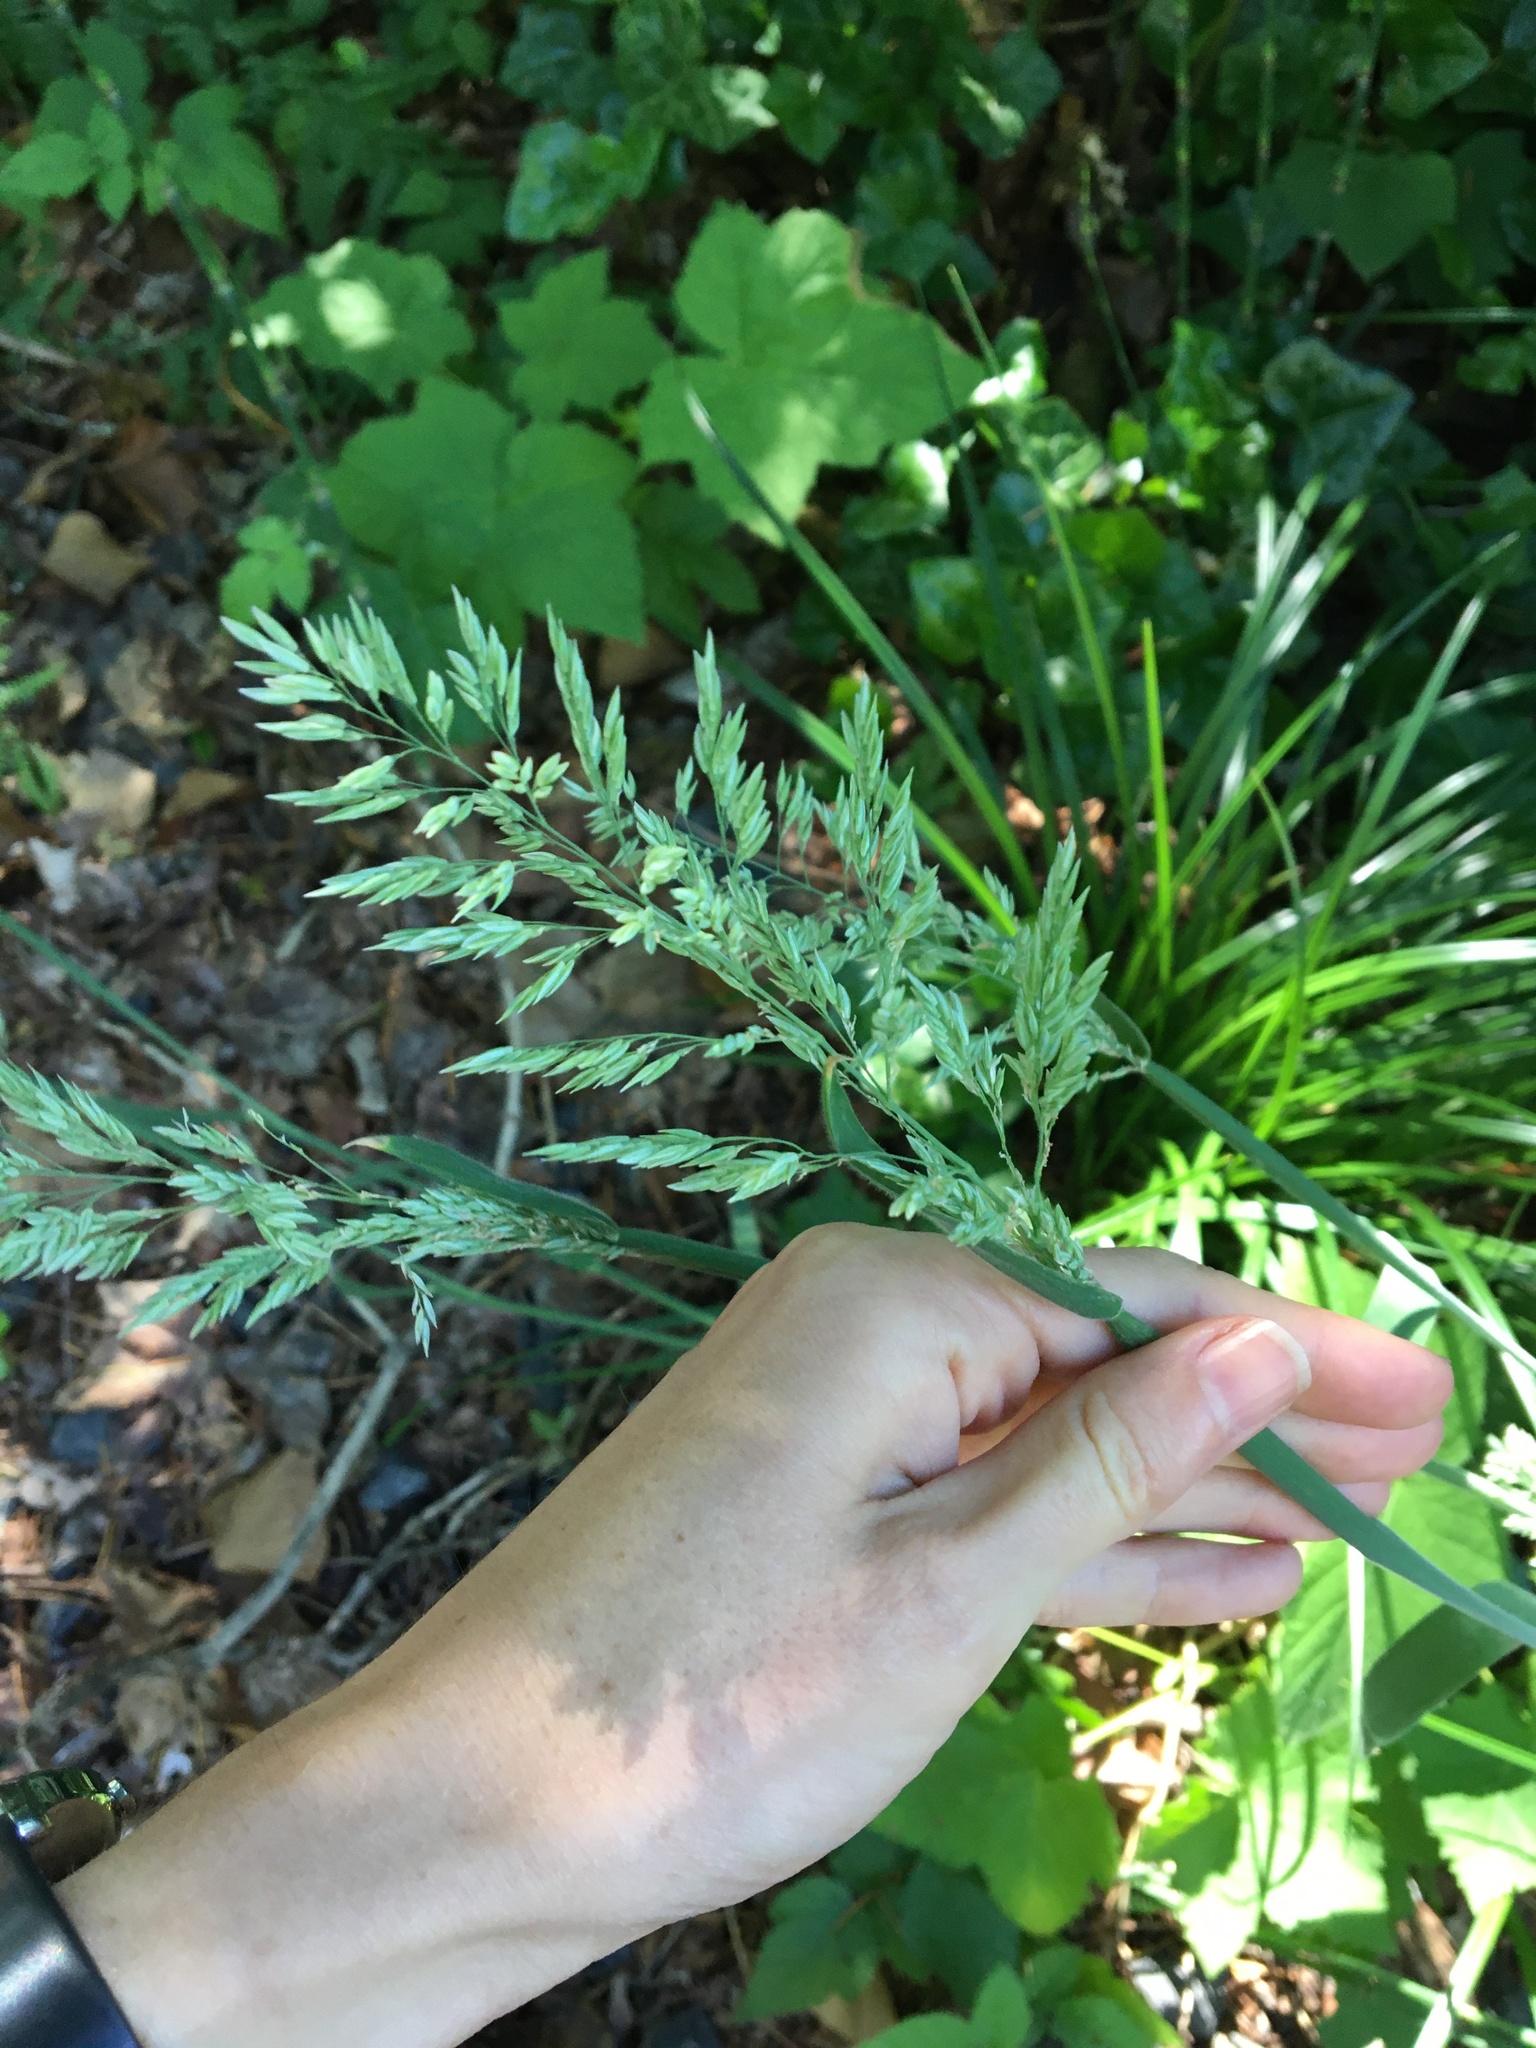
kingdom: Plantae
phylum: Tracheophyta
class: Liliopsida
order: Poales
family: Poaceae
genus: Holcus
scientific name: Holcus lanatus
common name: Yorkshire-fog
